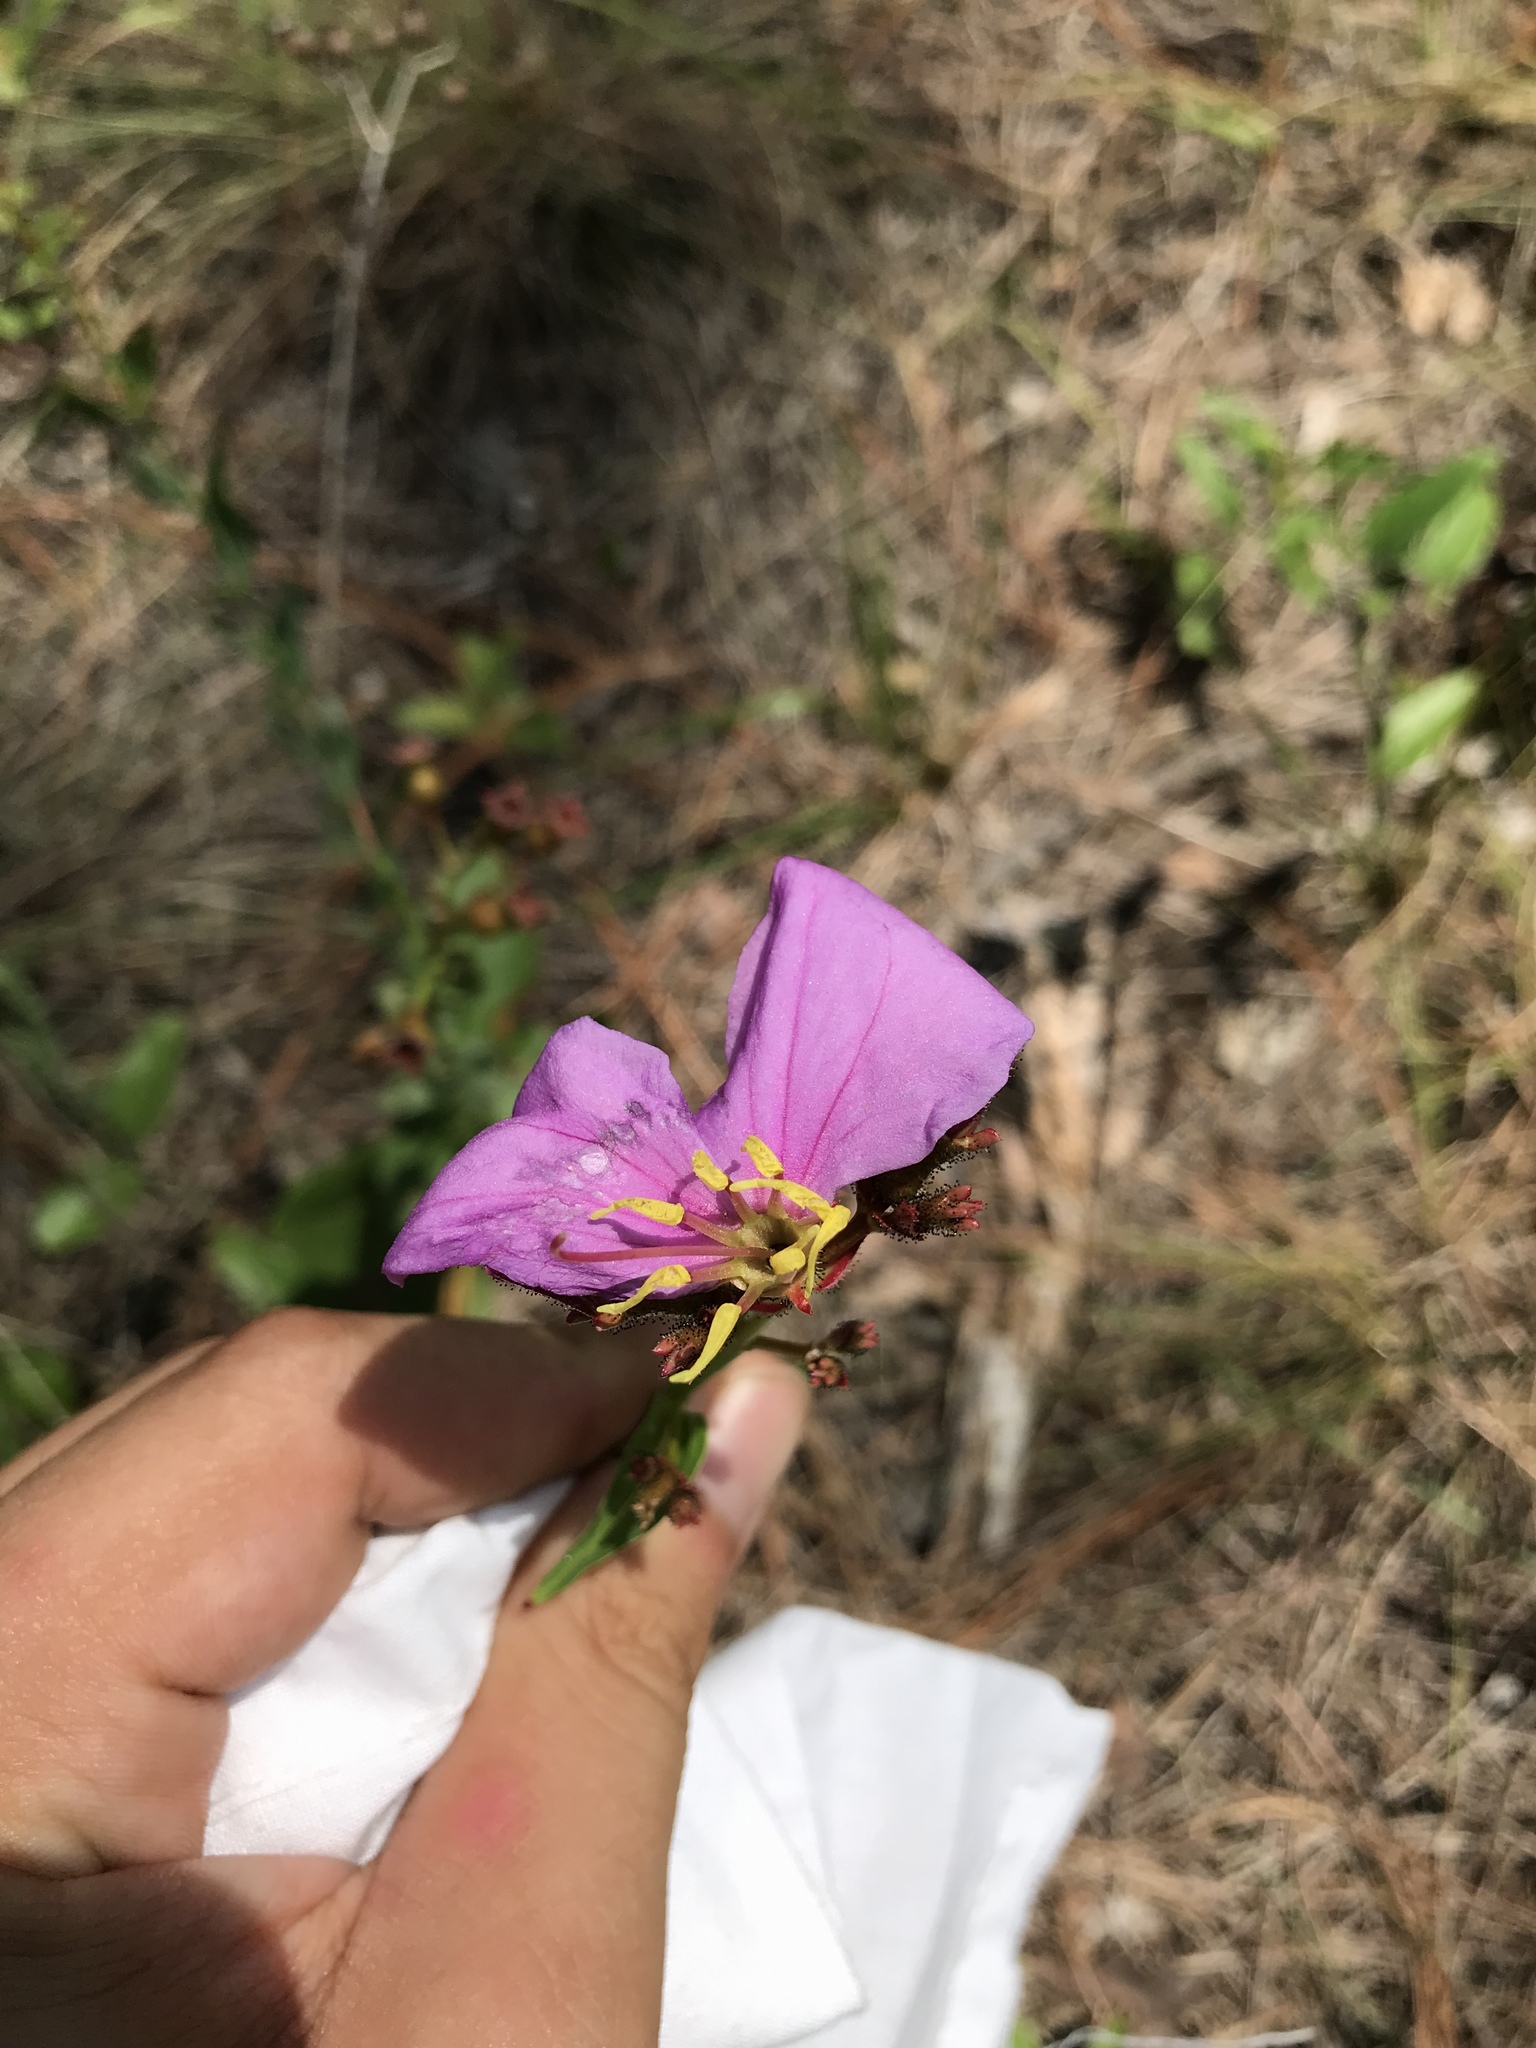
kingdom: Plantae
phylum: Tracheophyta
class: Magnoliopsida
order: Myrtales
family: Melastomataceae
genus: Rhexia
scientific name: Rhexia alifanus
